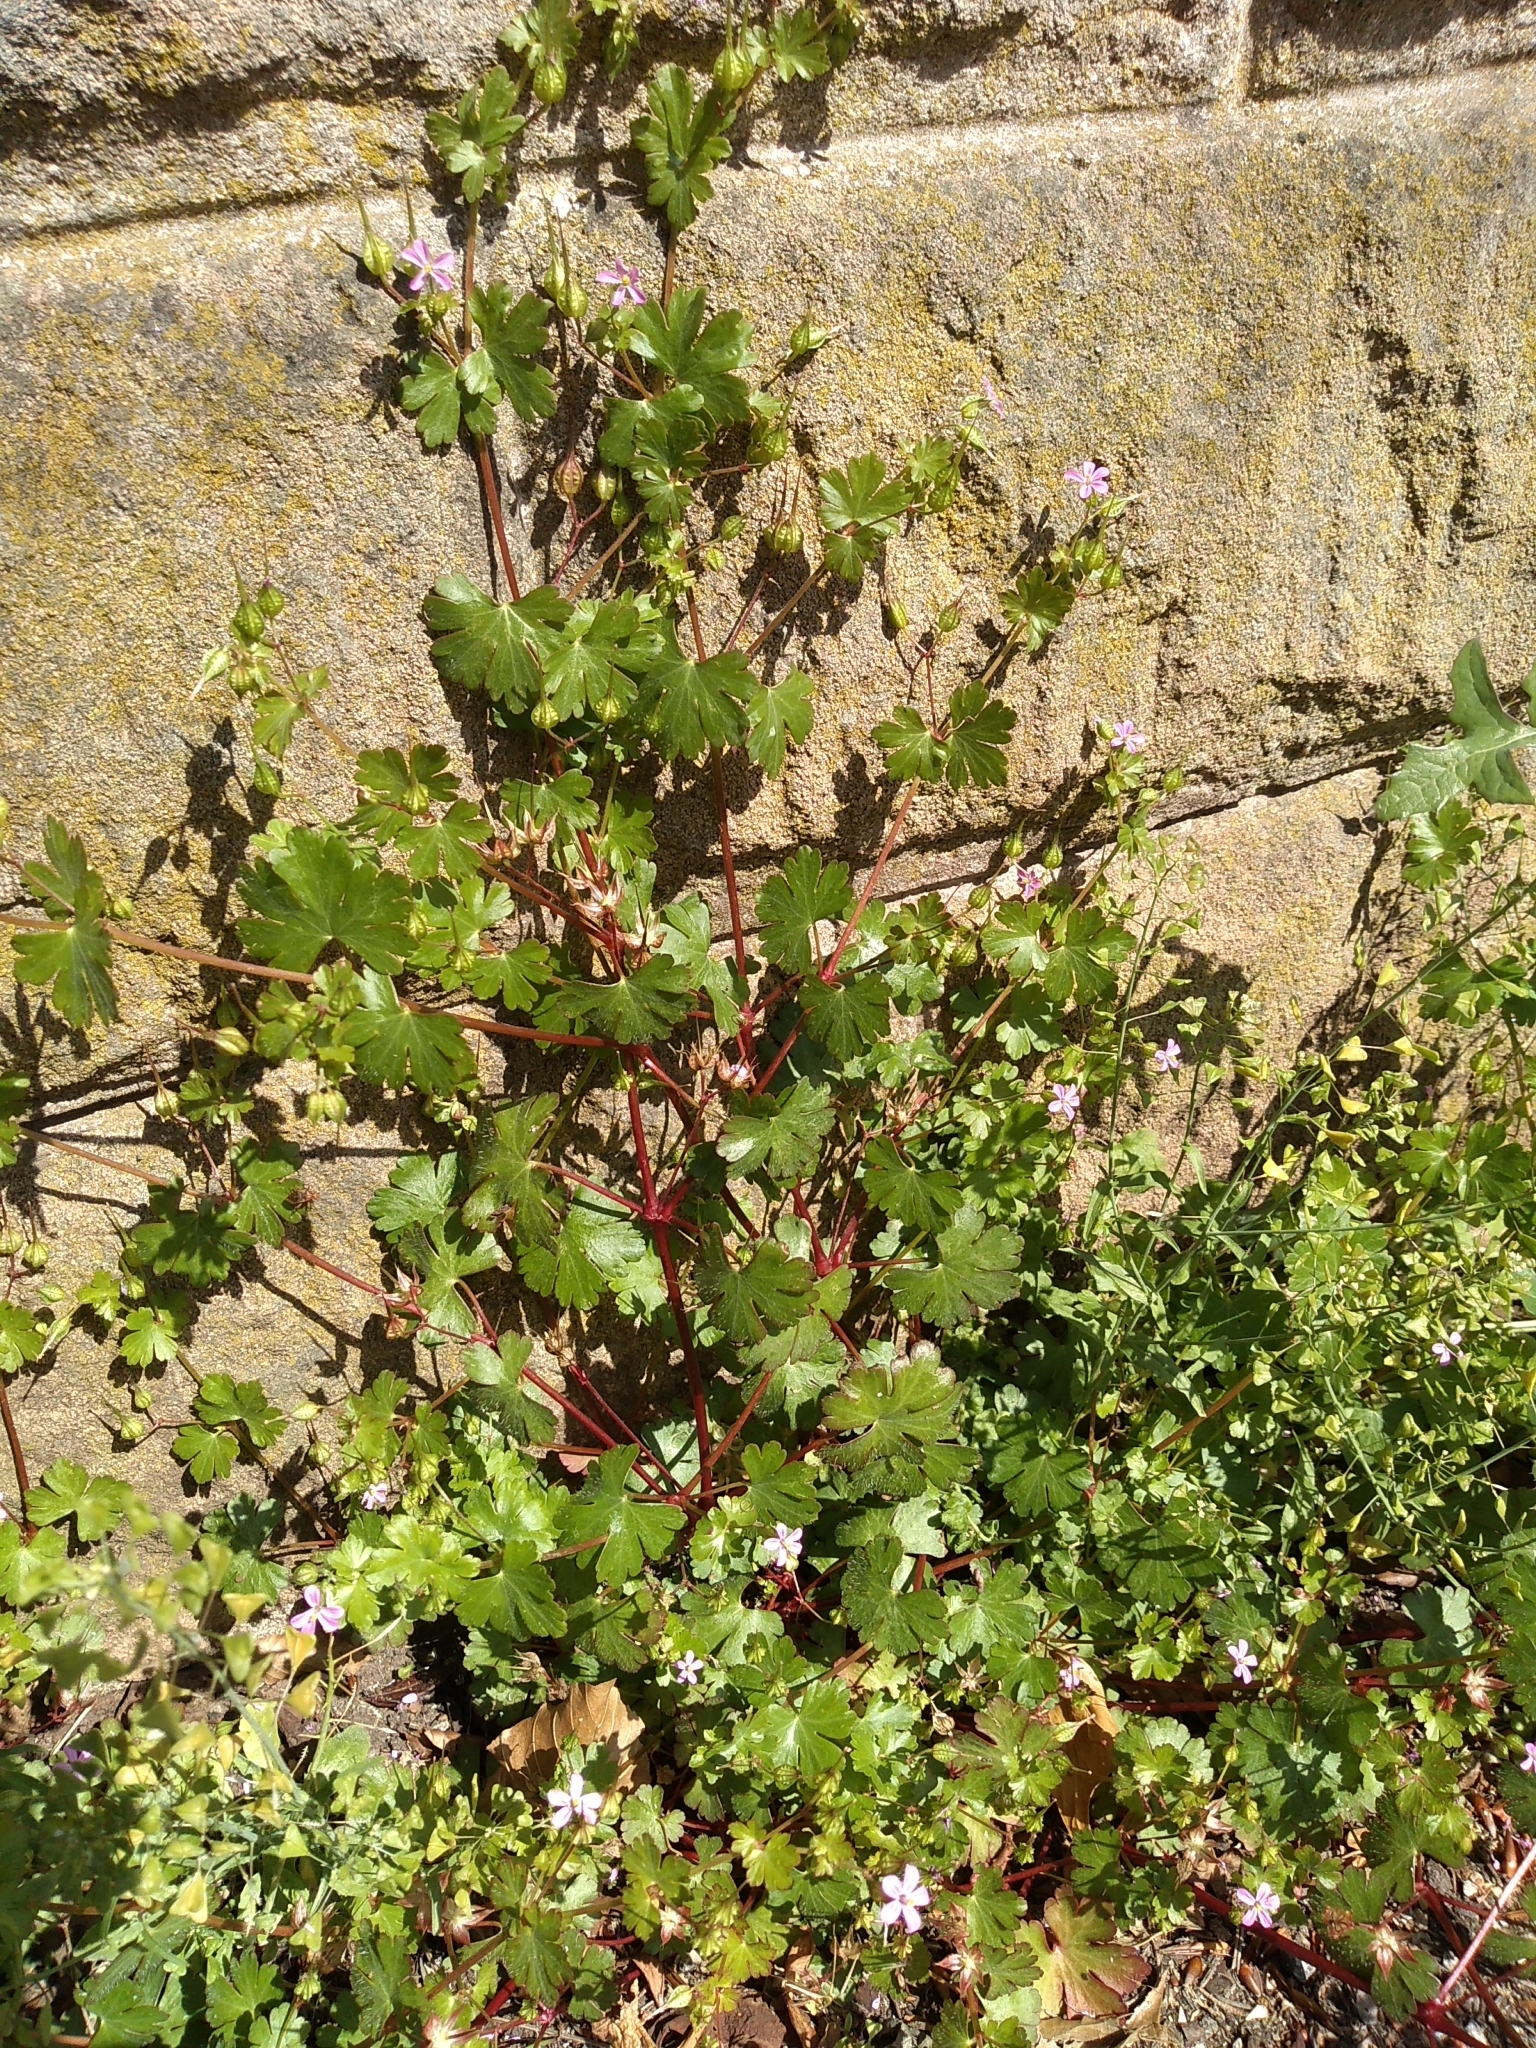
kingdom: Plantae
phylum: Tracheophyta
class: Magnoliopsida
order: Geraniales
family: Geraniaceae
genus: Geranium
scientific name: Geranium lucidum
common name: Shining crane's-bill
